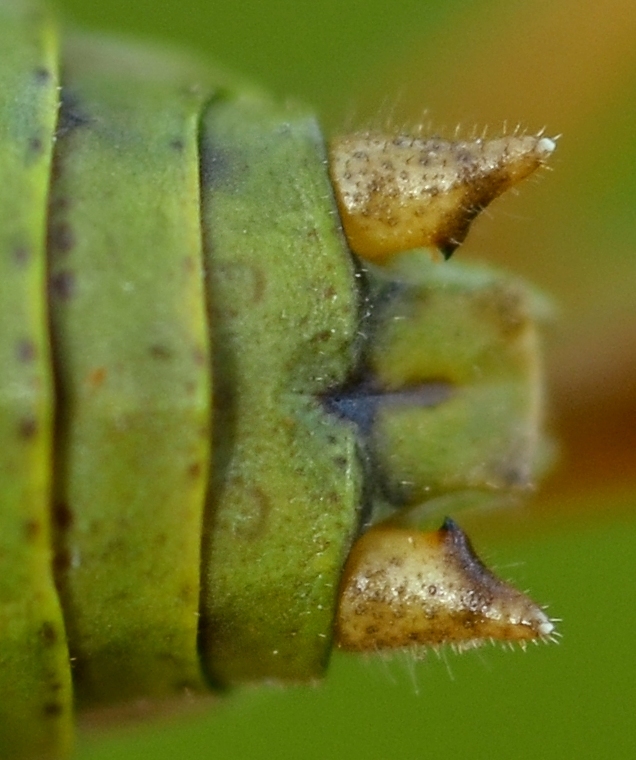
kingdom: Animalia
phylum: Arthropoda
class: Insecta
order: Orthoptera
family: Tettigoniidae
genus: Ephippiger
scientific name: Ephippiger diurnus
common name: Western saddle bush-cricket
